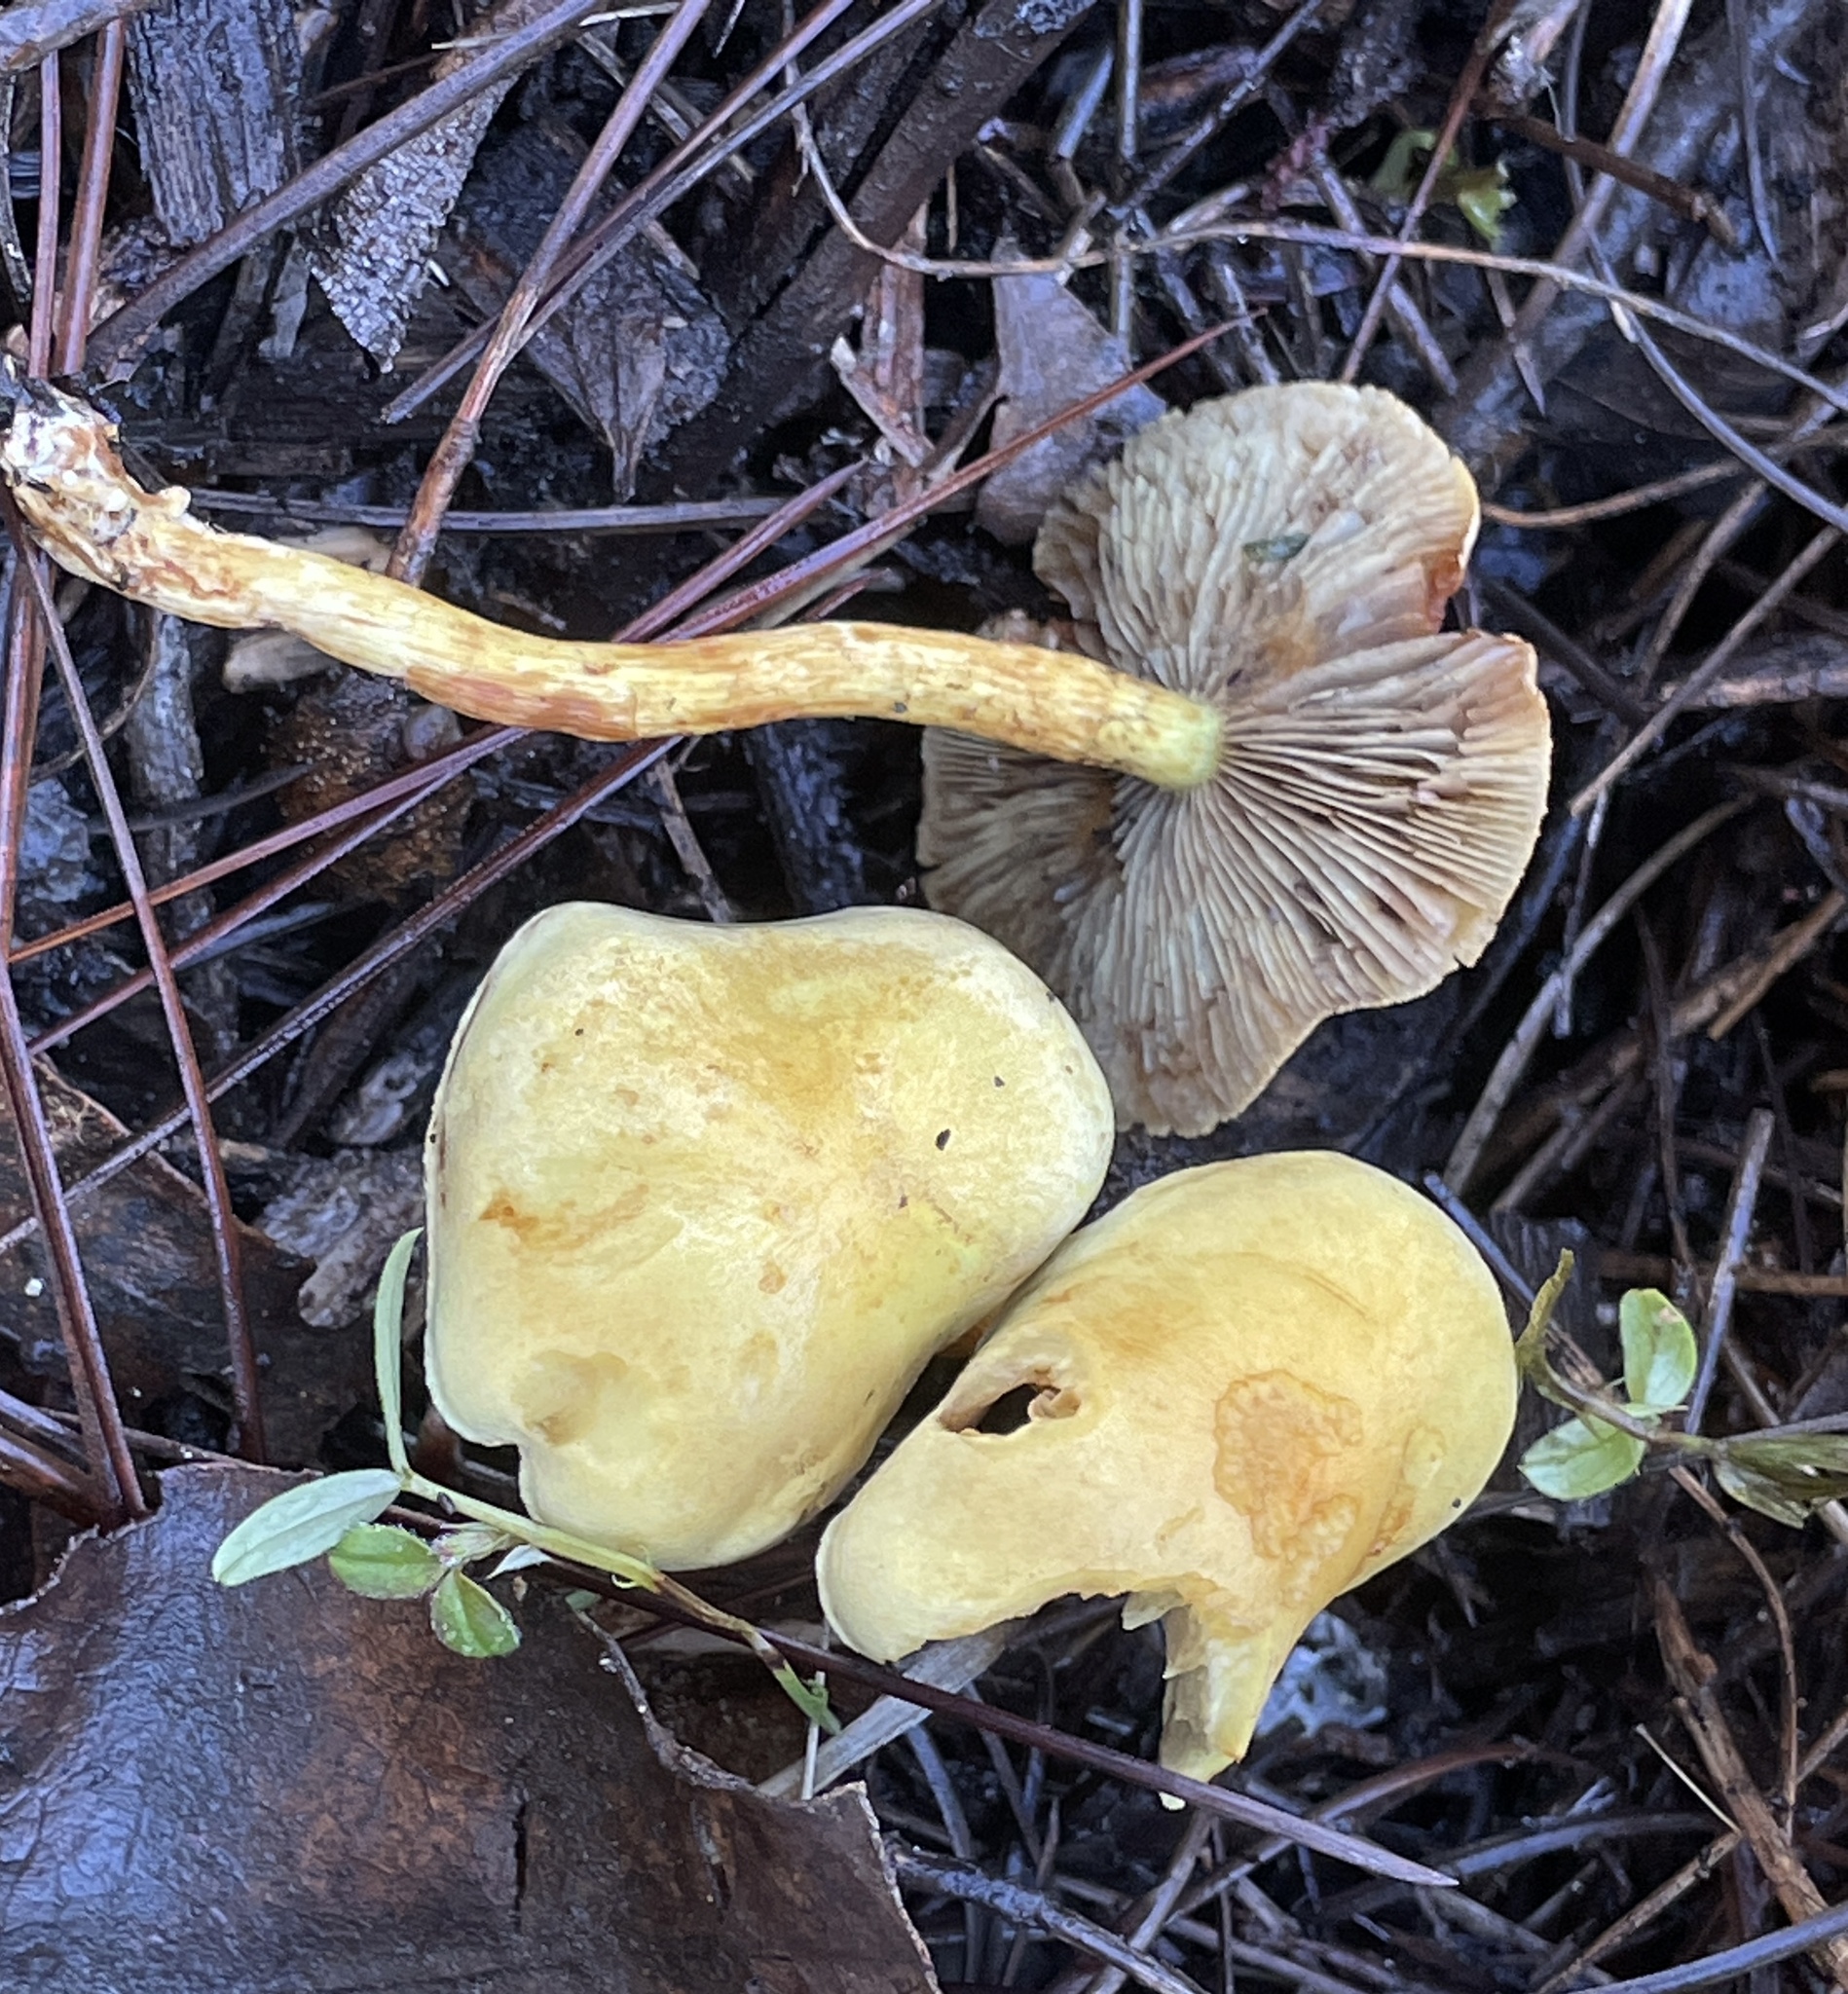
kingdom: Fungi
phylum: Basidiomycota
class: Agaricomycetes
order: Agaricales
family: Strophariaceae
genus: Hypholoma
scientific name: Hypholoma fasciculare
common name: Sulphur tuft
